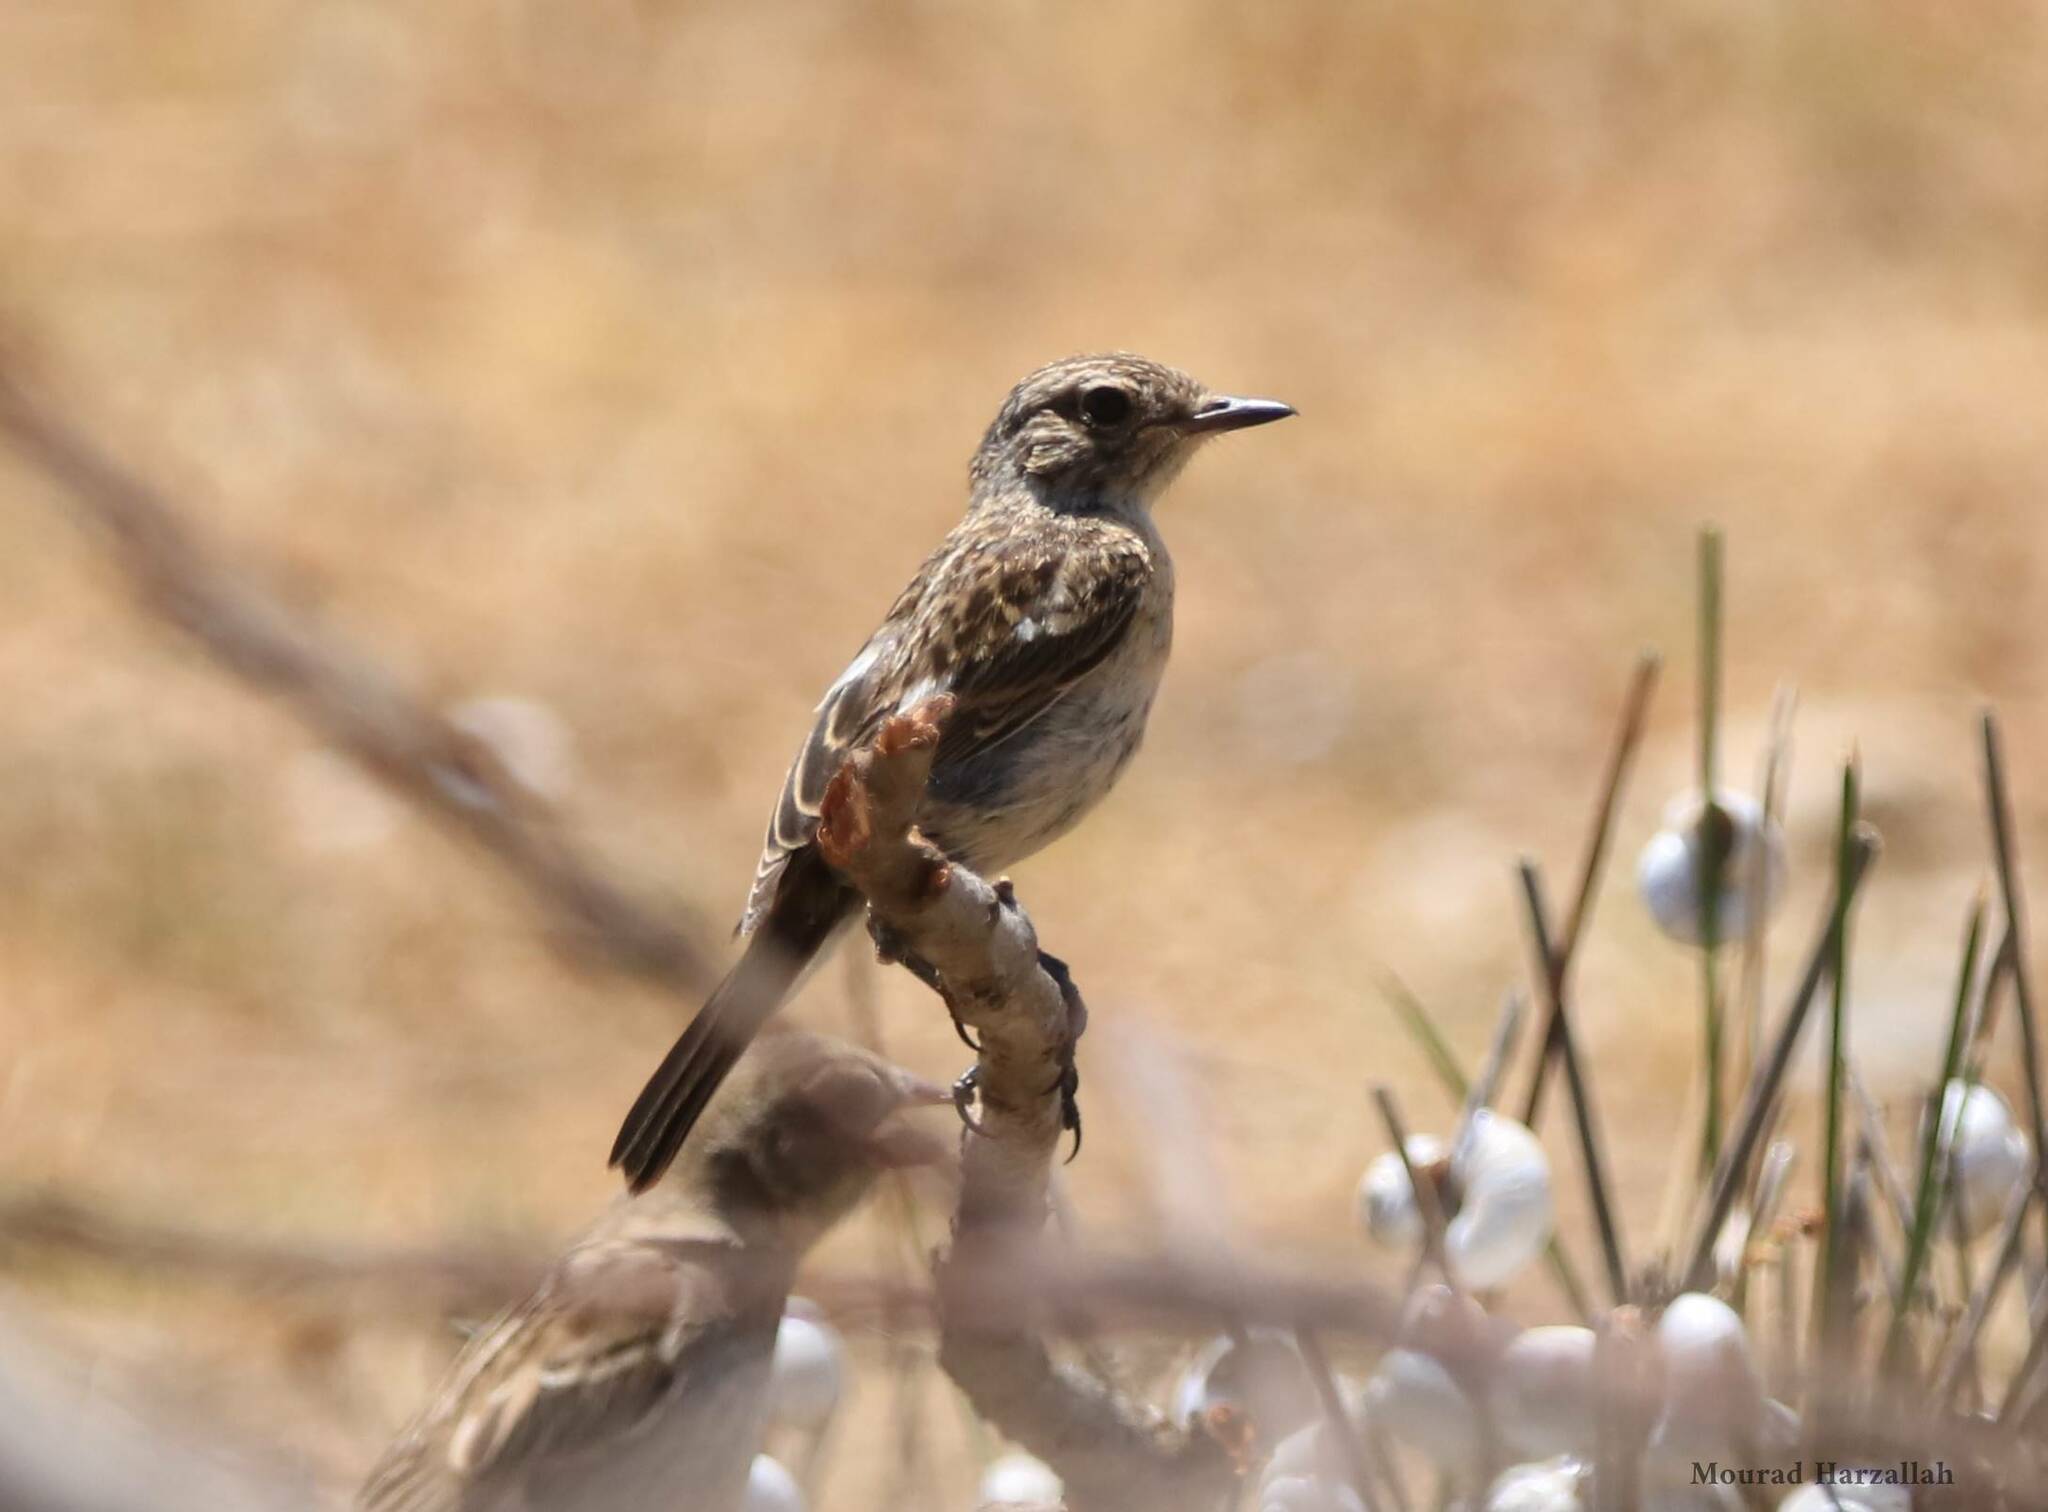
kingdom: Animalia
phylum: Chordata
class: Aves
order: Passeriformes
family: Muscicapidae
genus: Saxicola
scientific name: Saxicola rubicola
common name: European stonechat
